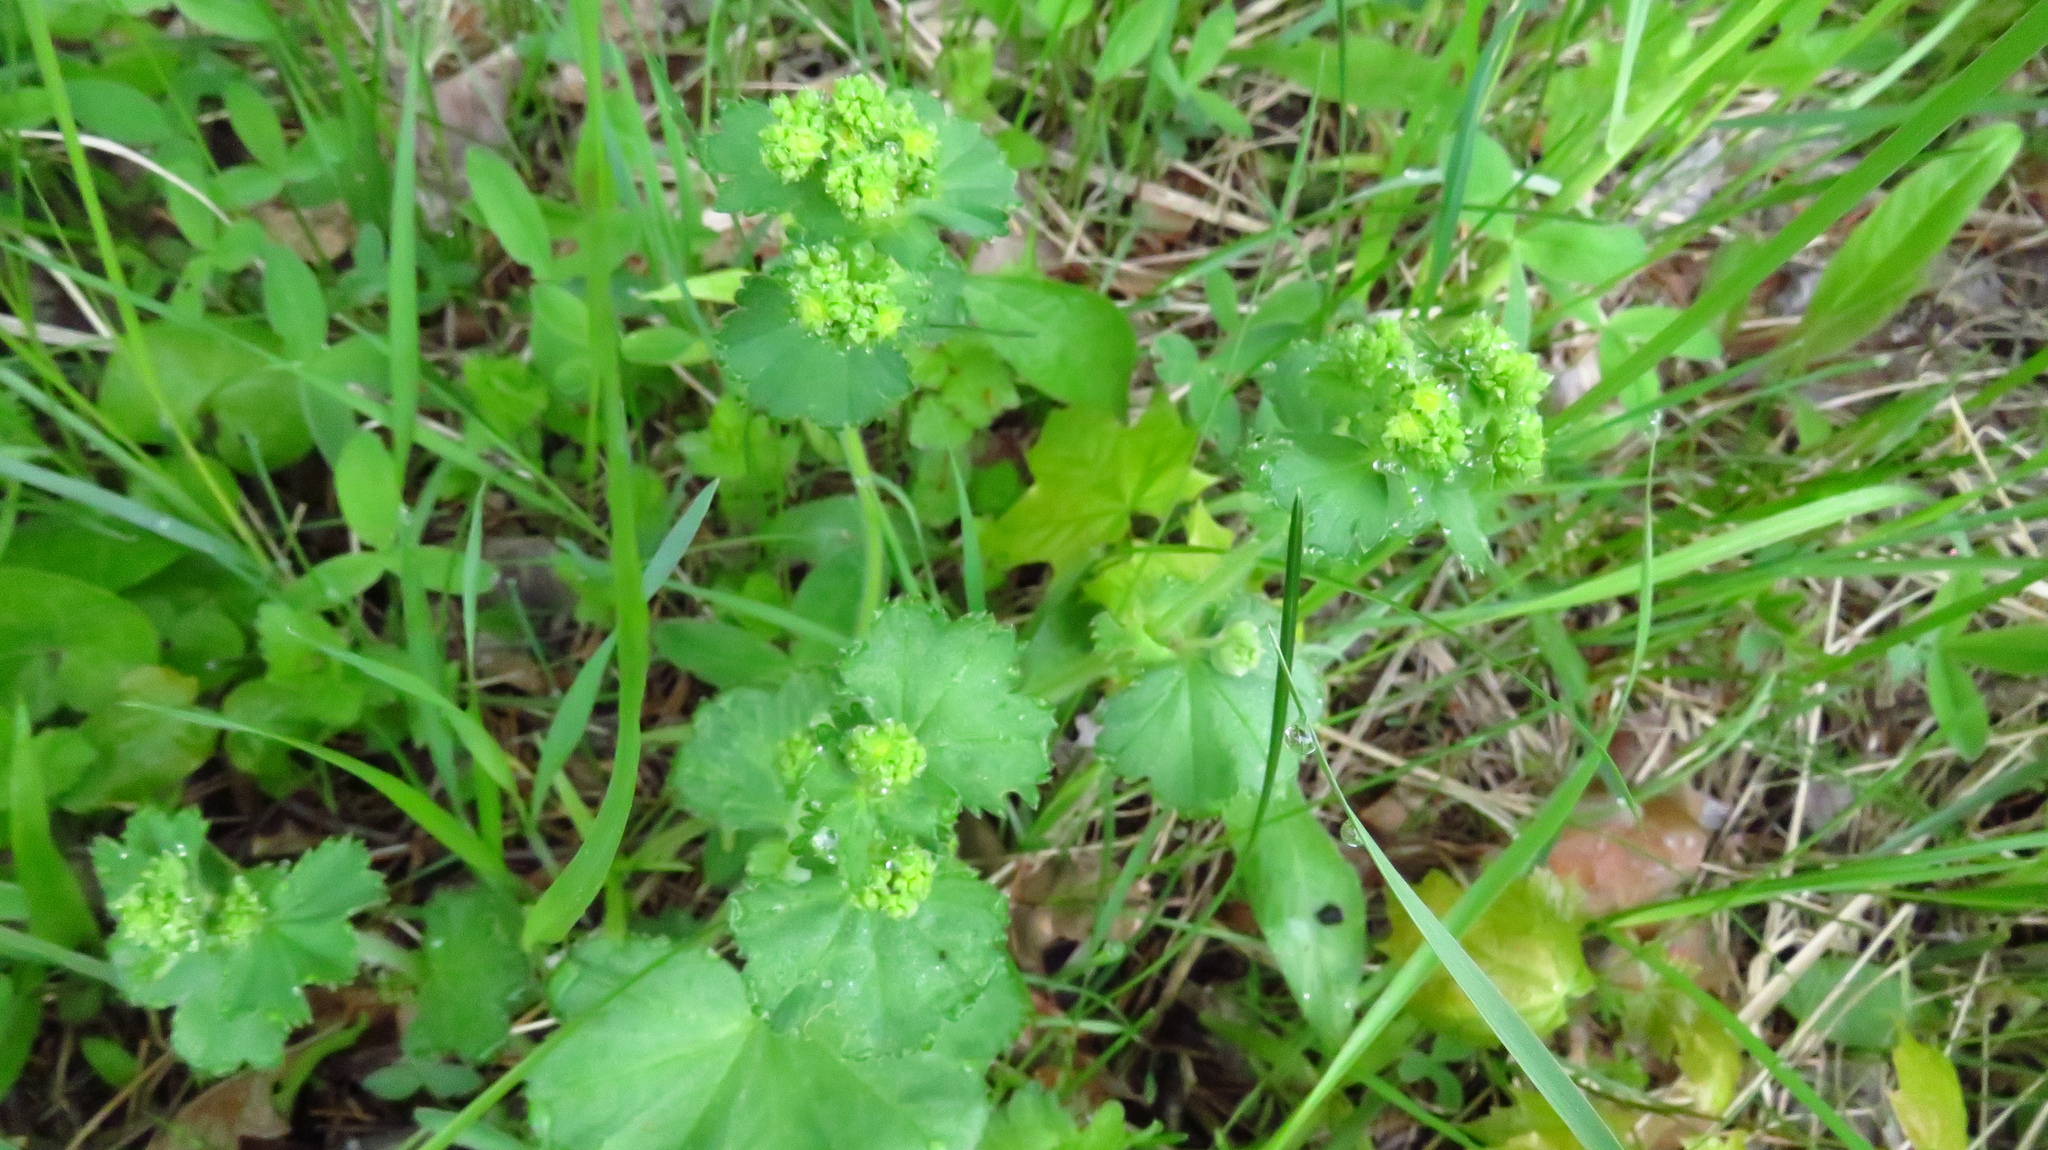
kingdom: Plantae
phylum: Tracheophyta
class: Magnoliopsida
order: Rosales
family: Rosaceae
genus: Alchemilla
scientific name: Alchemilla
